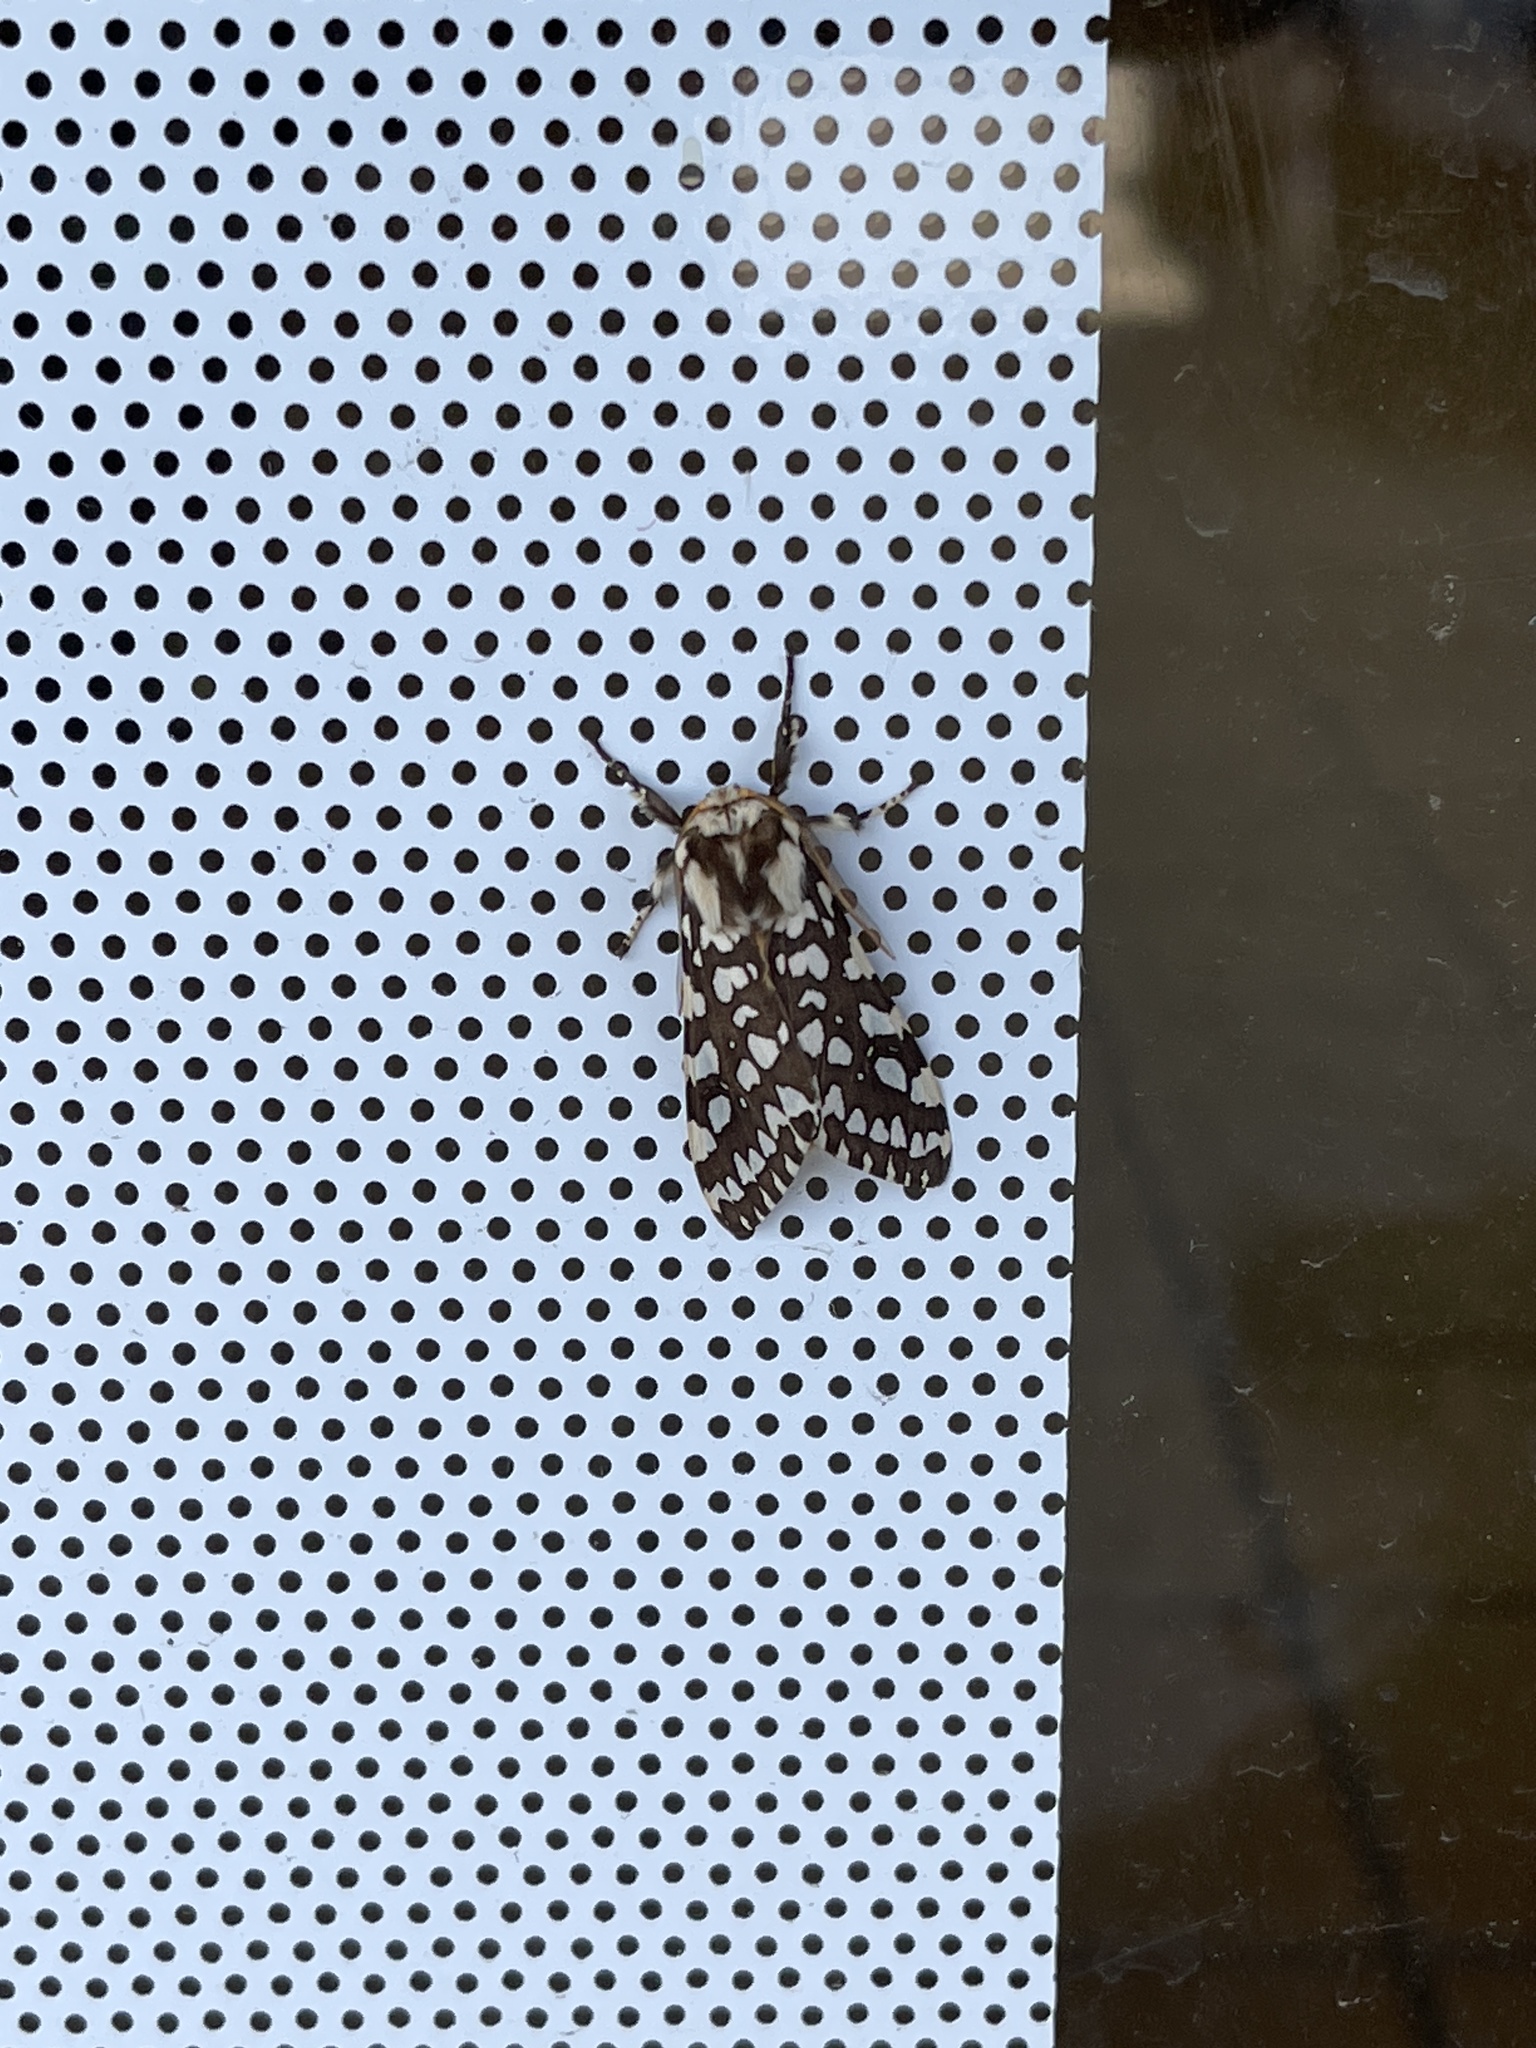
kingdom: Animalia
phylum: Arthropoda
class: Insecta
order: Lepidoptera
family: Erebidae
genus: Lophocampa
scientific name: Lophocampa ingens
